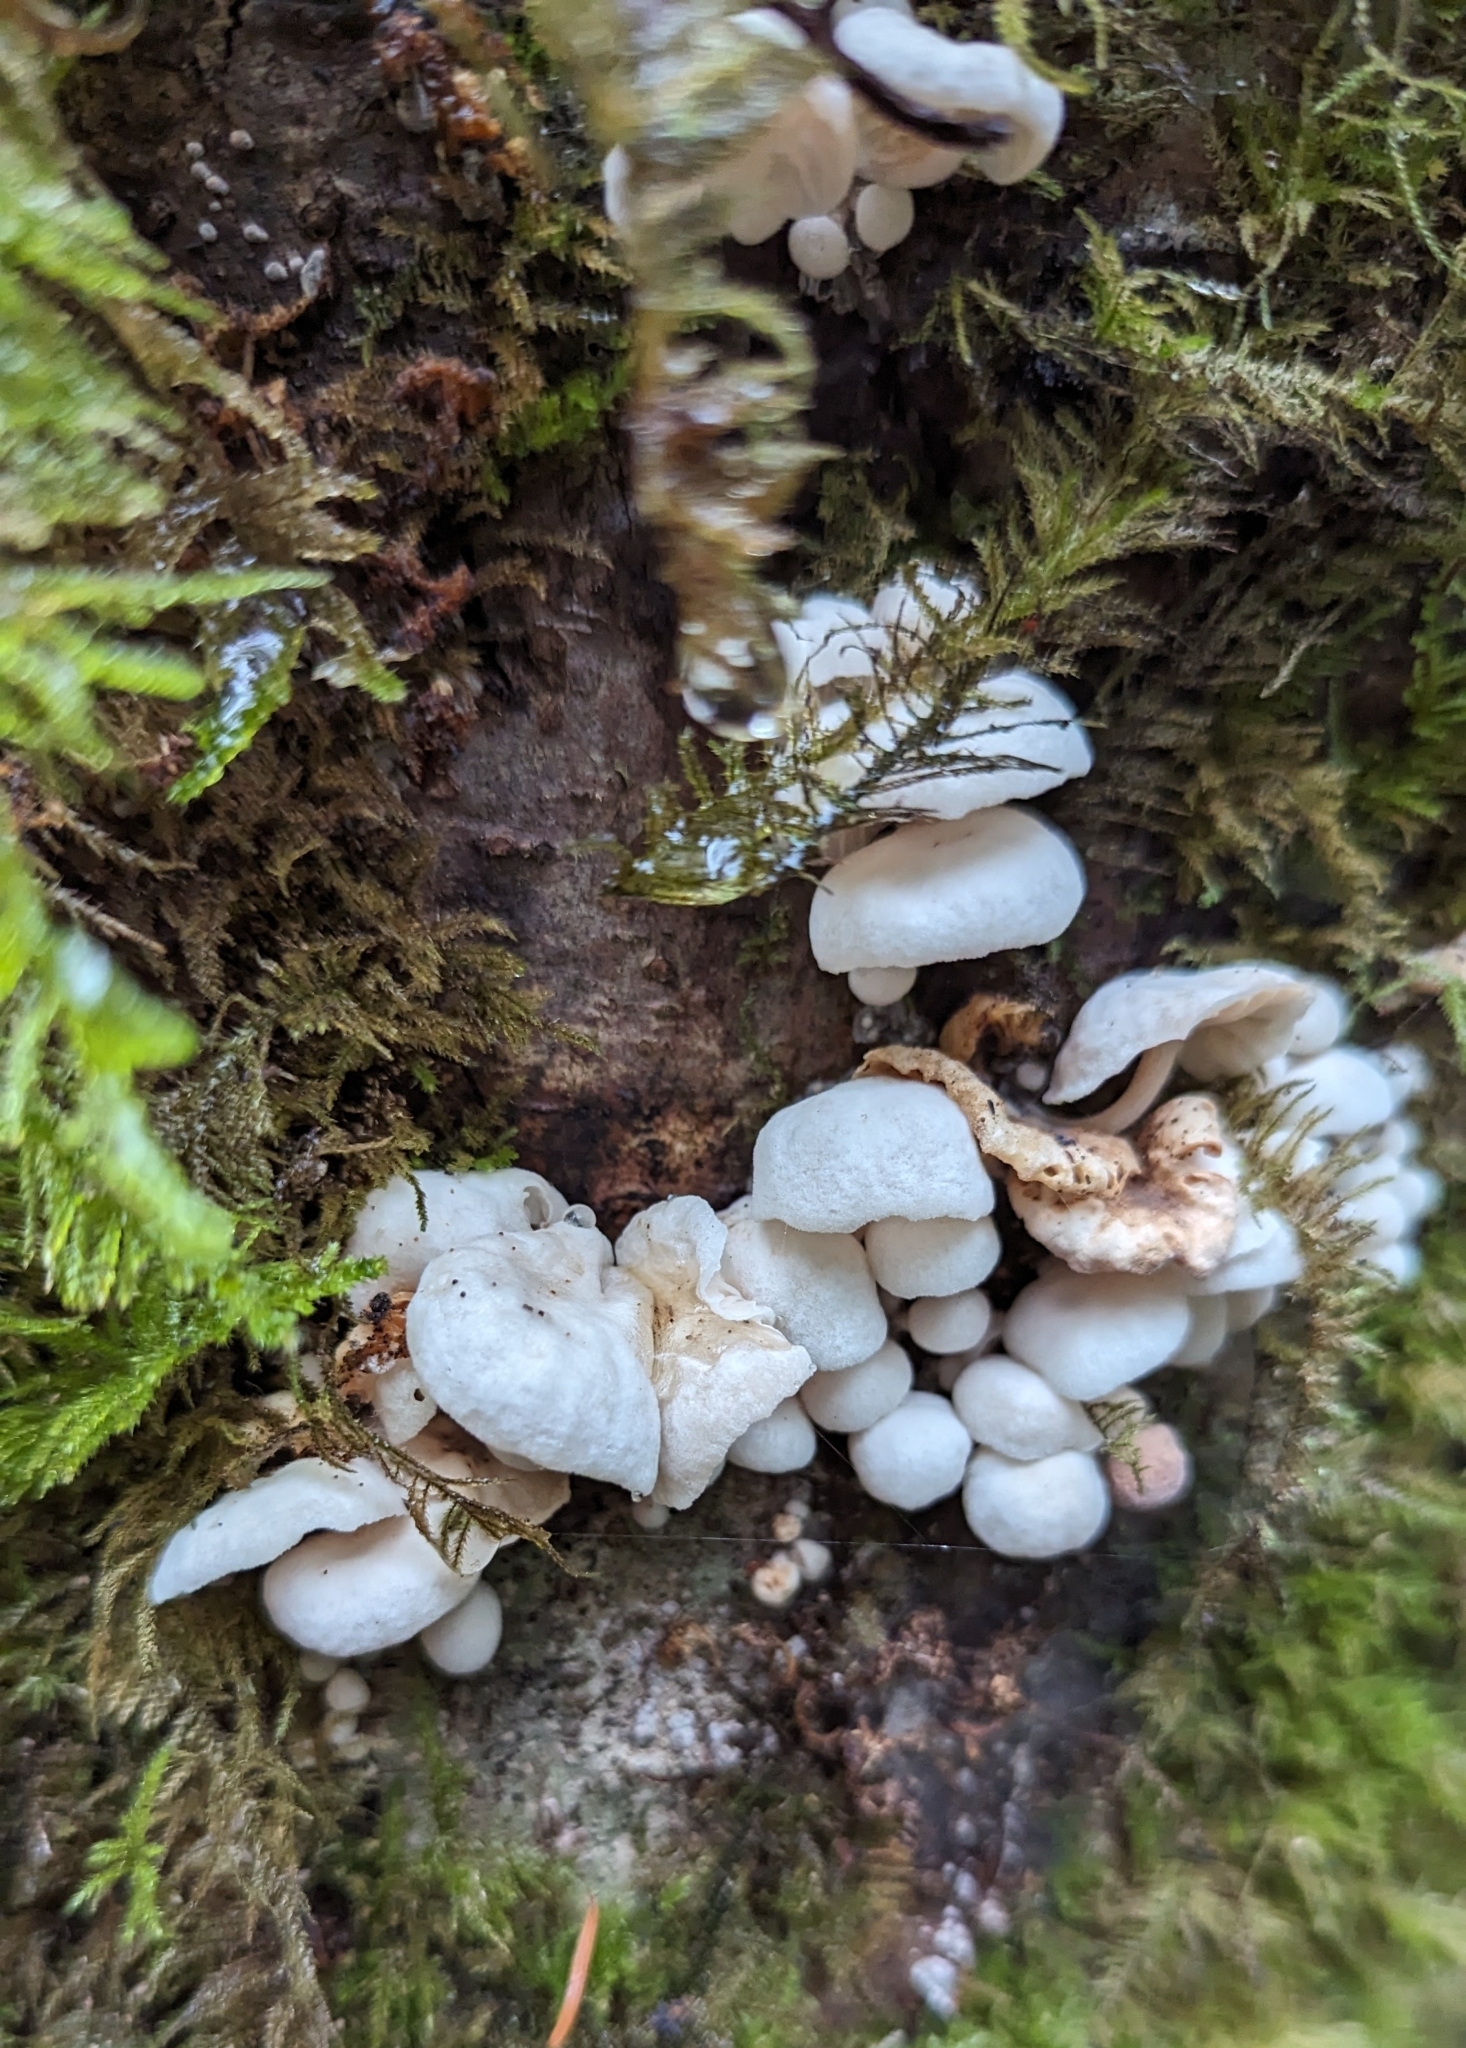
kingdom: Fungi
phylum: Basidiomycota
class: Agaricomycetes
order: Agaricales
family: Omphalotaceae
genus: Marasmiellus
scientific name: Marasmiellus candidus
